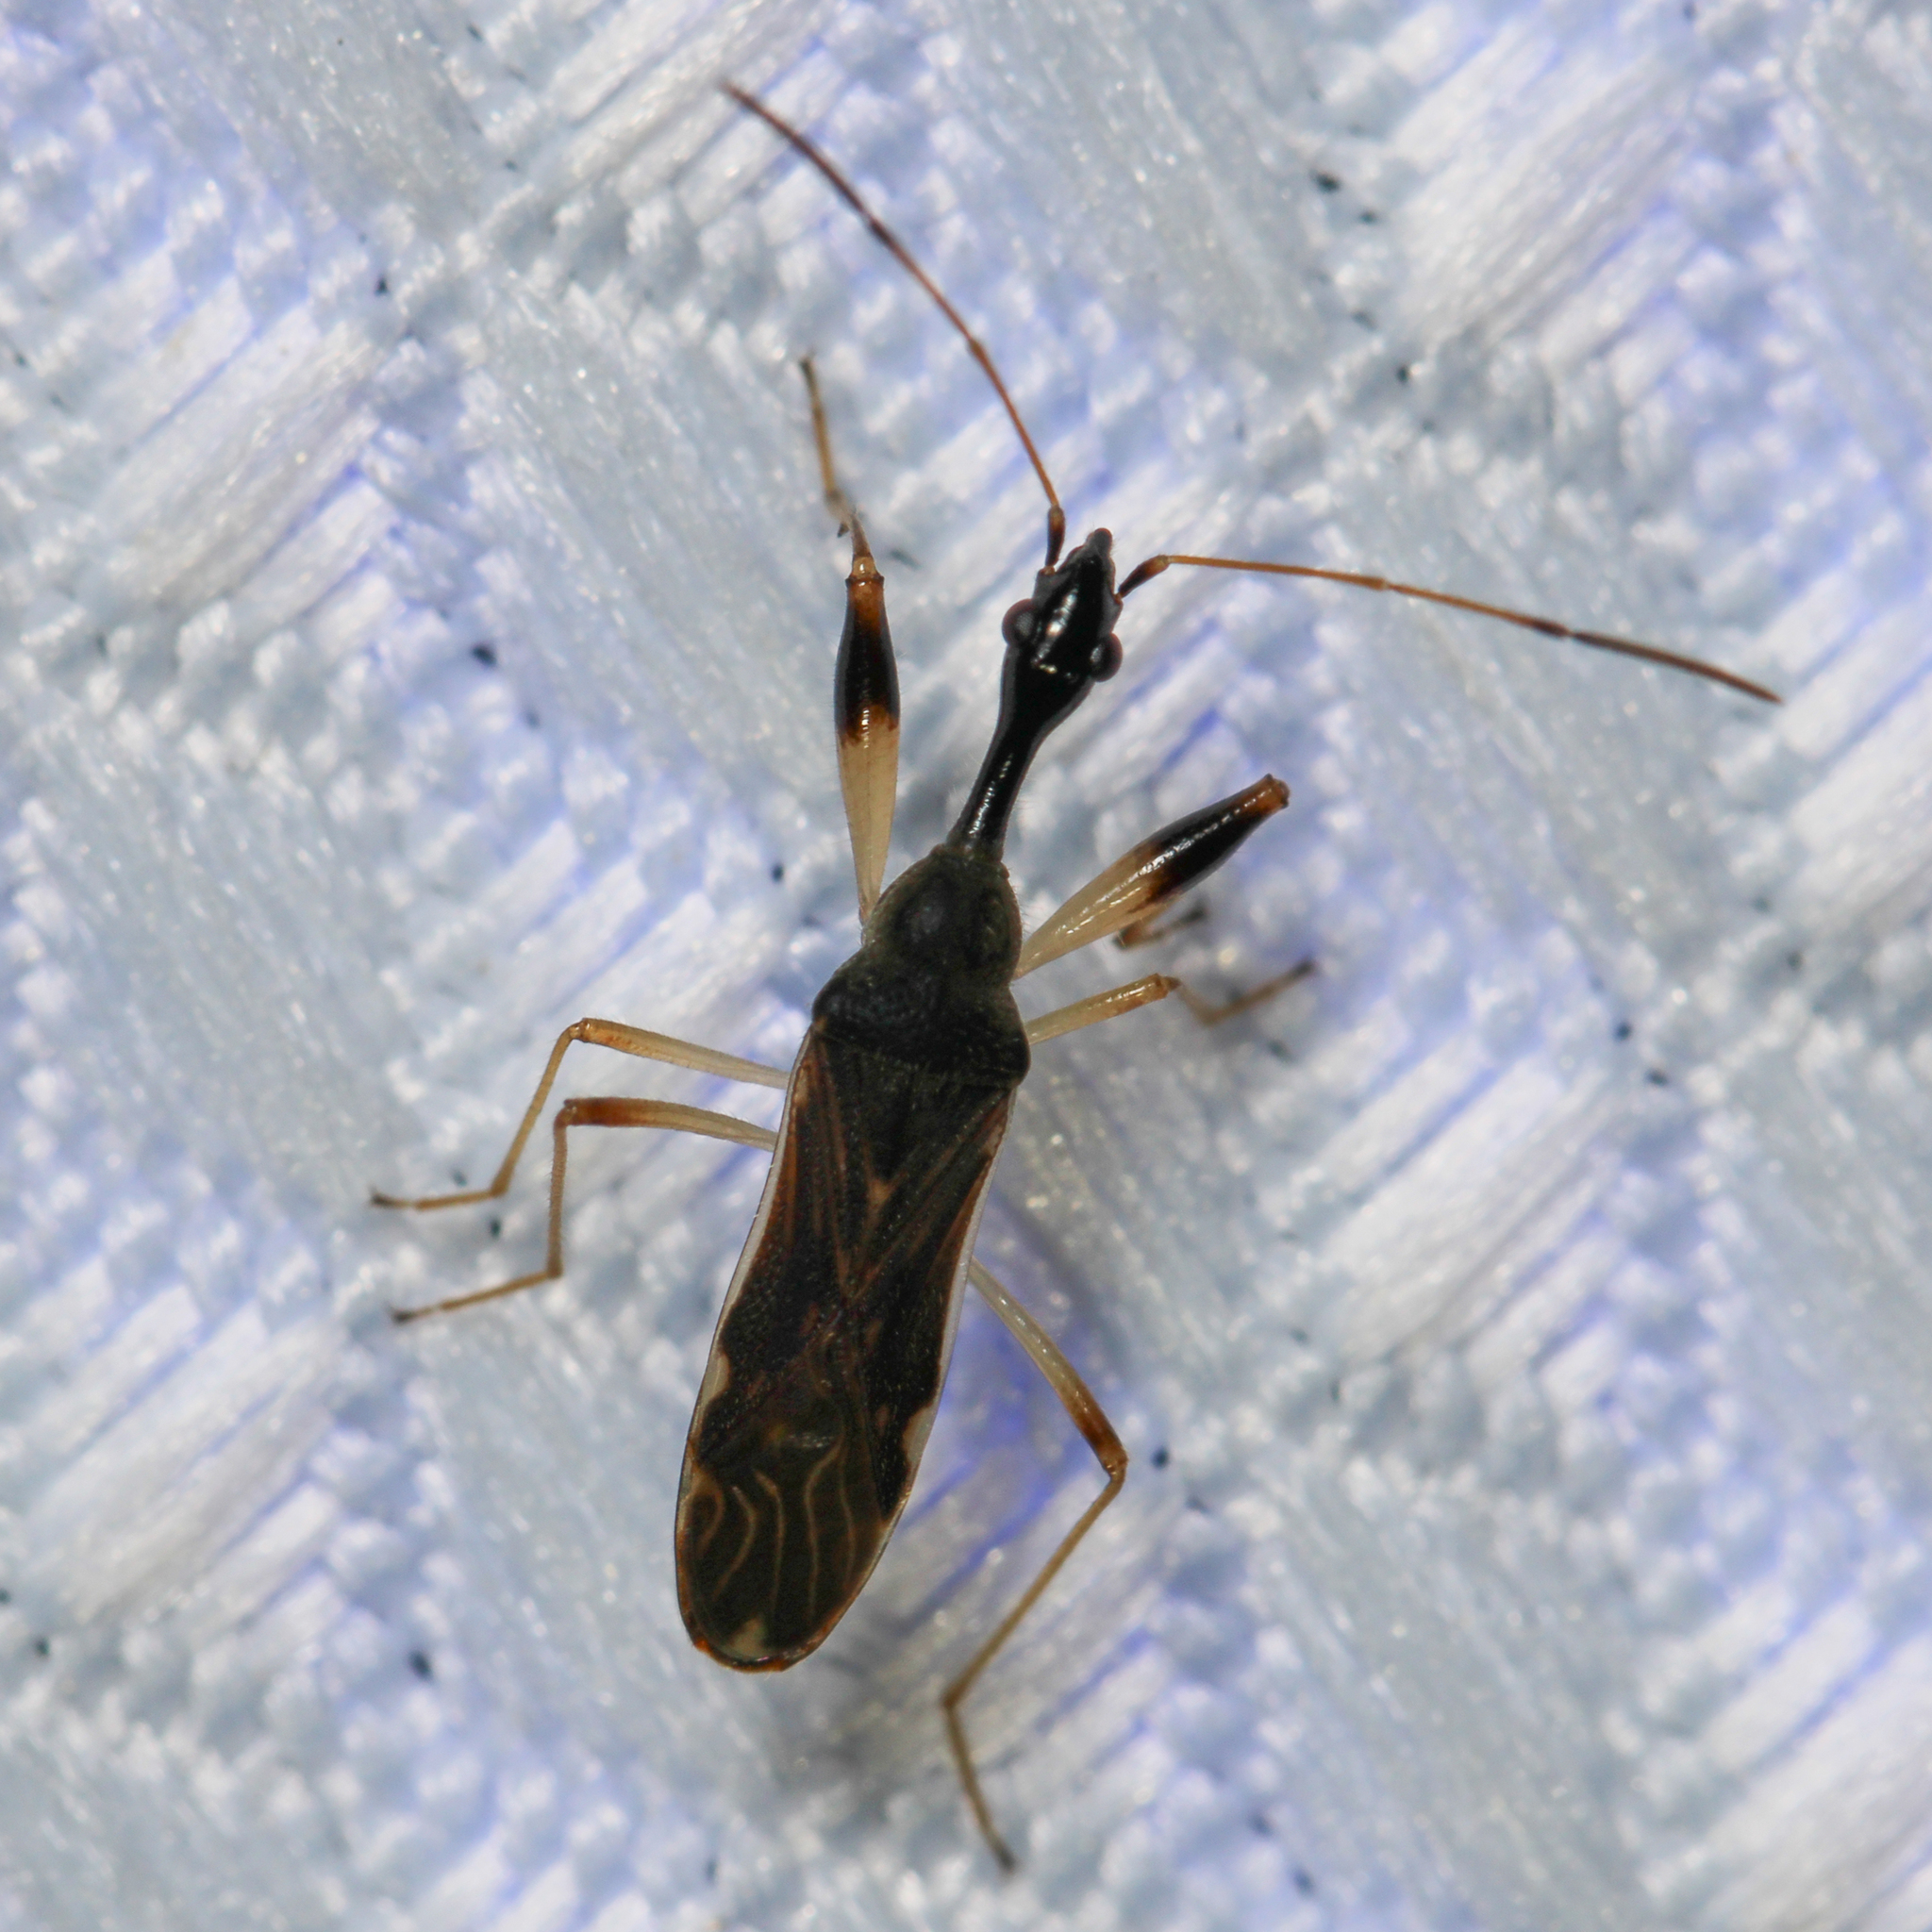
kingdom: Animalia
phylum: Arthropoda
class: Insecta
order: Hemiptera
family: Rhyparochromidae
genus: Myodocha
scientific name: Myodocha serripes
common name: Long-necked seed bug
